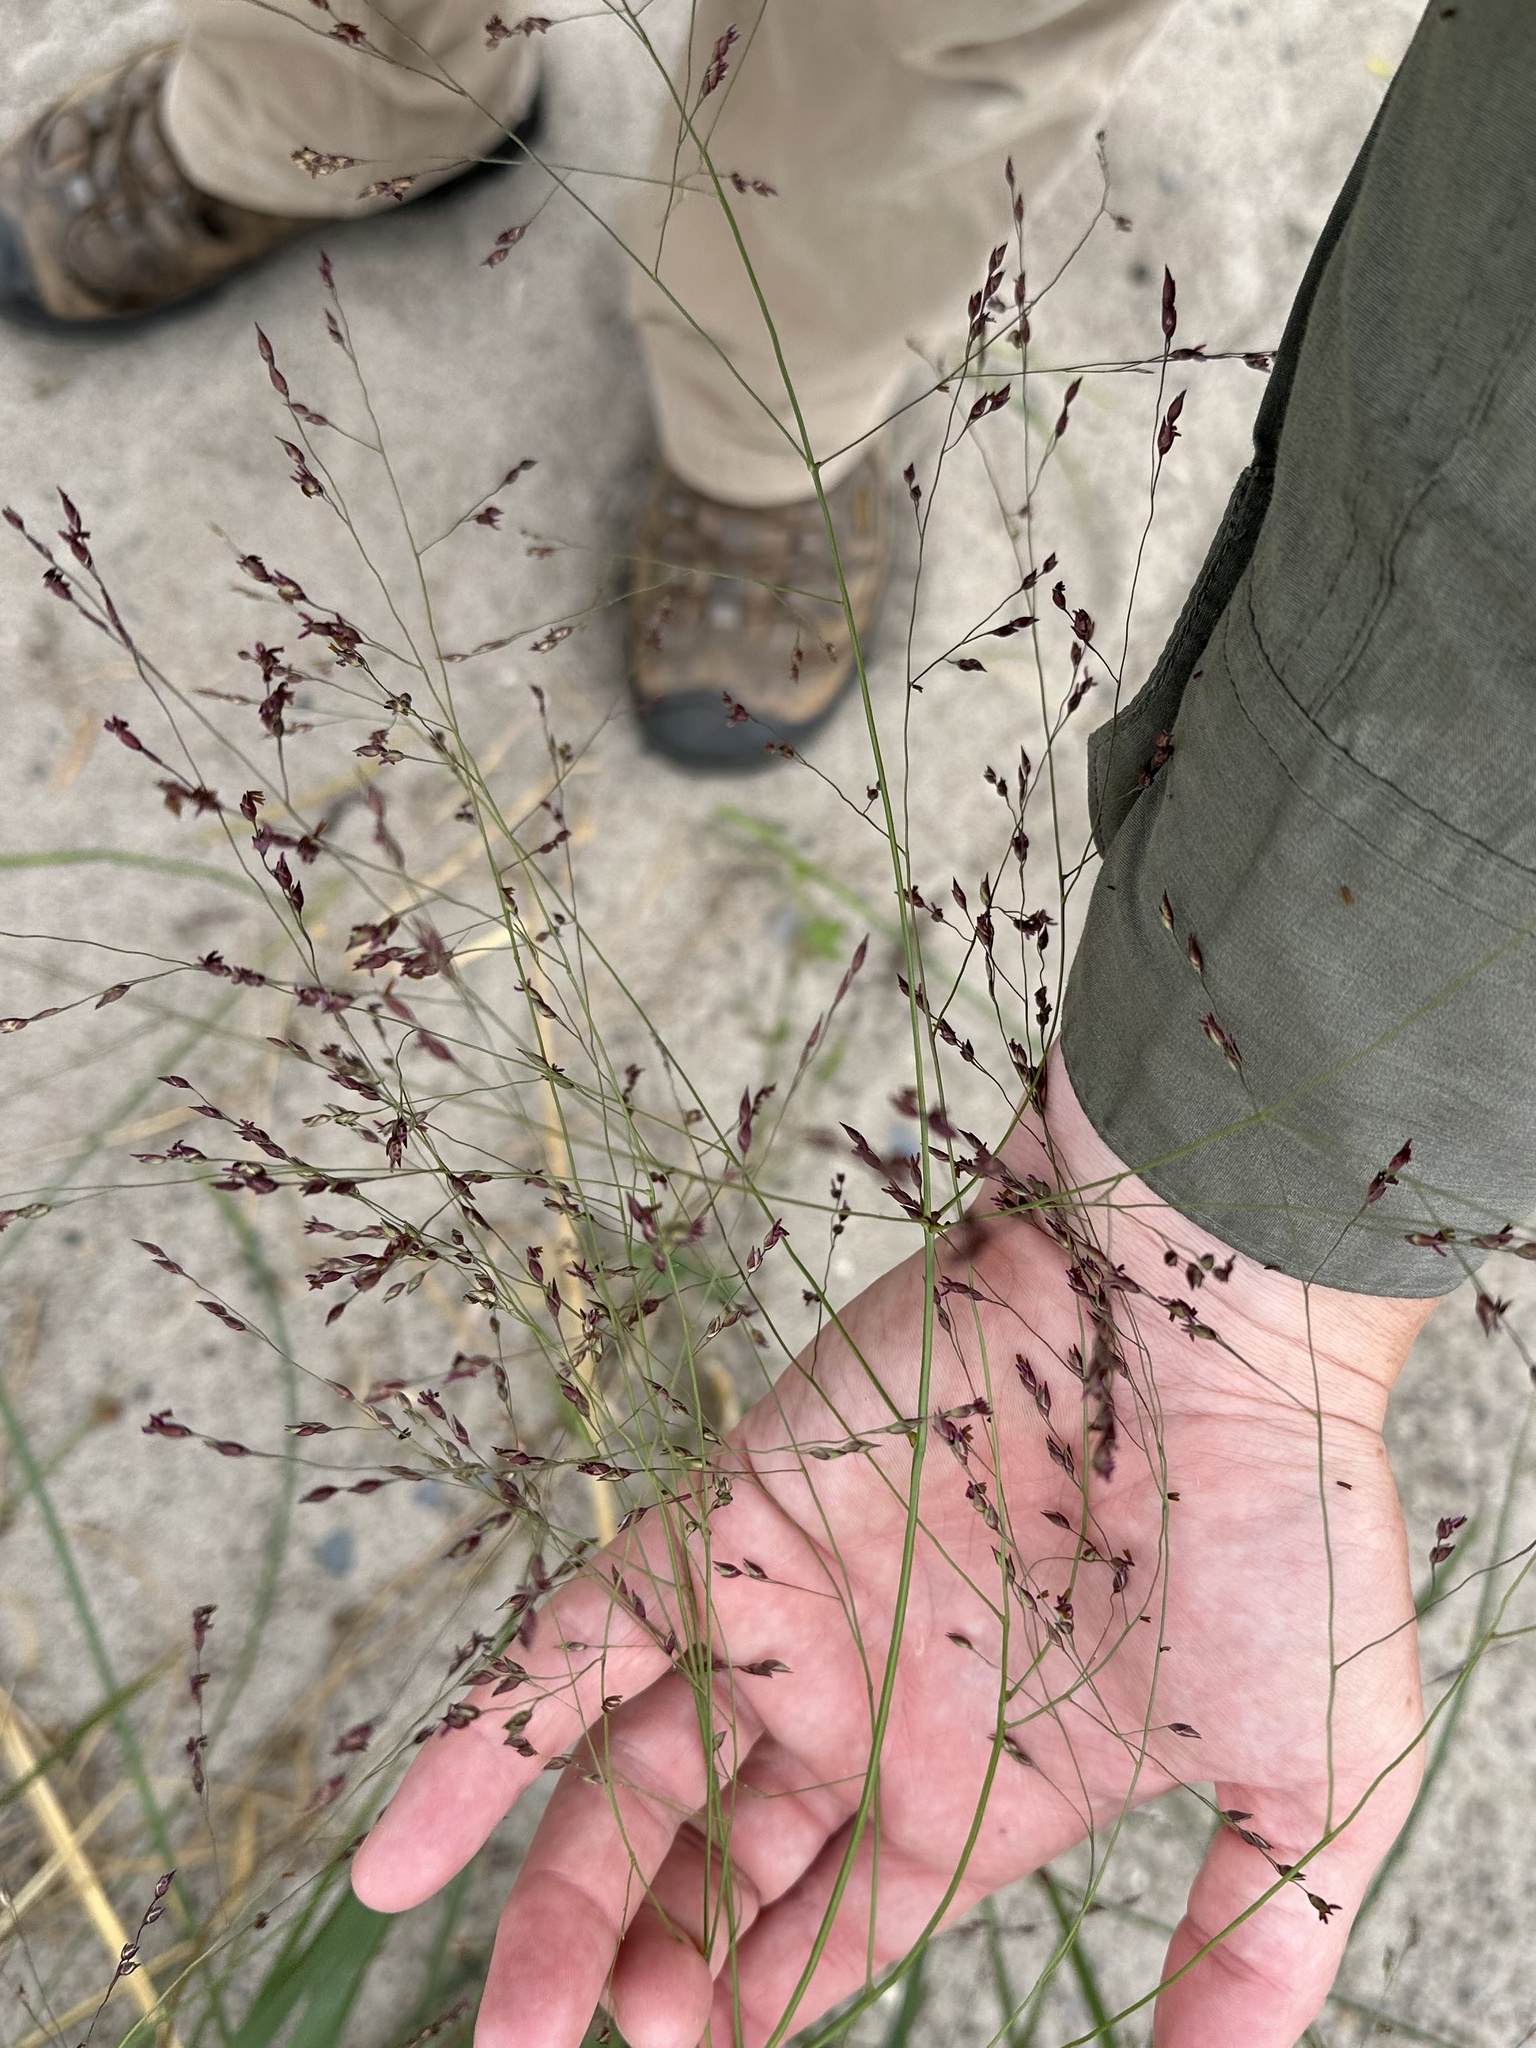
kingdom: Plantae
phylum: Tracheophyta
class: Liliopsida
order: Poales
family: Poaceae
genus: Panicum
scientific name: Panicum virgatum
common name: Switchgrass
